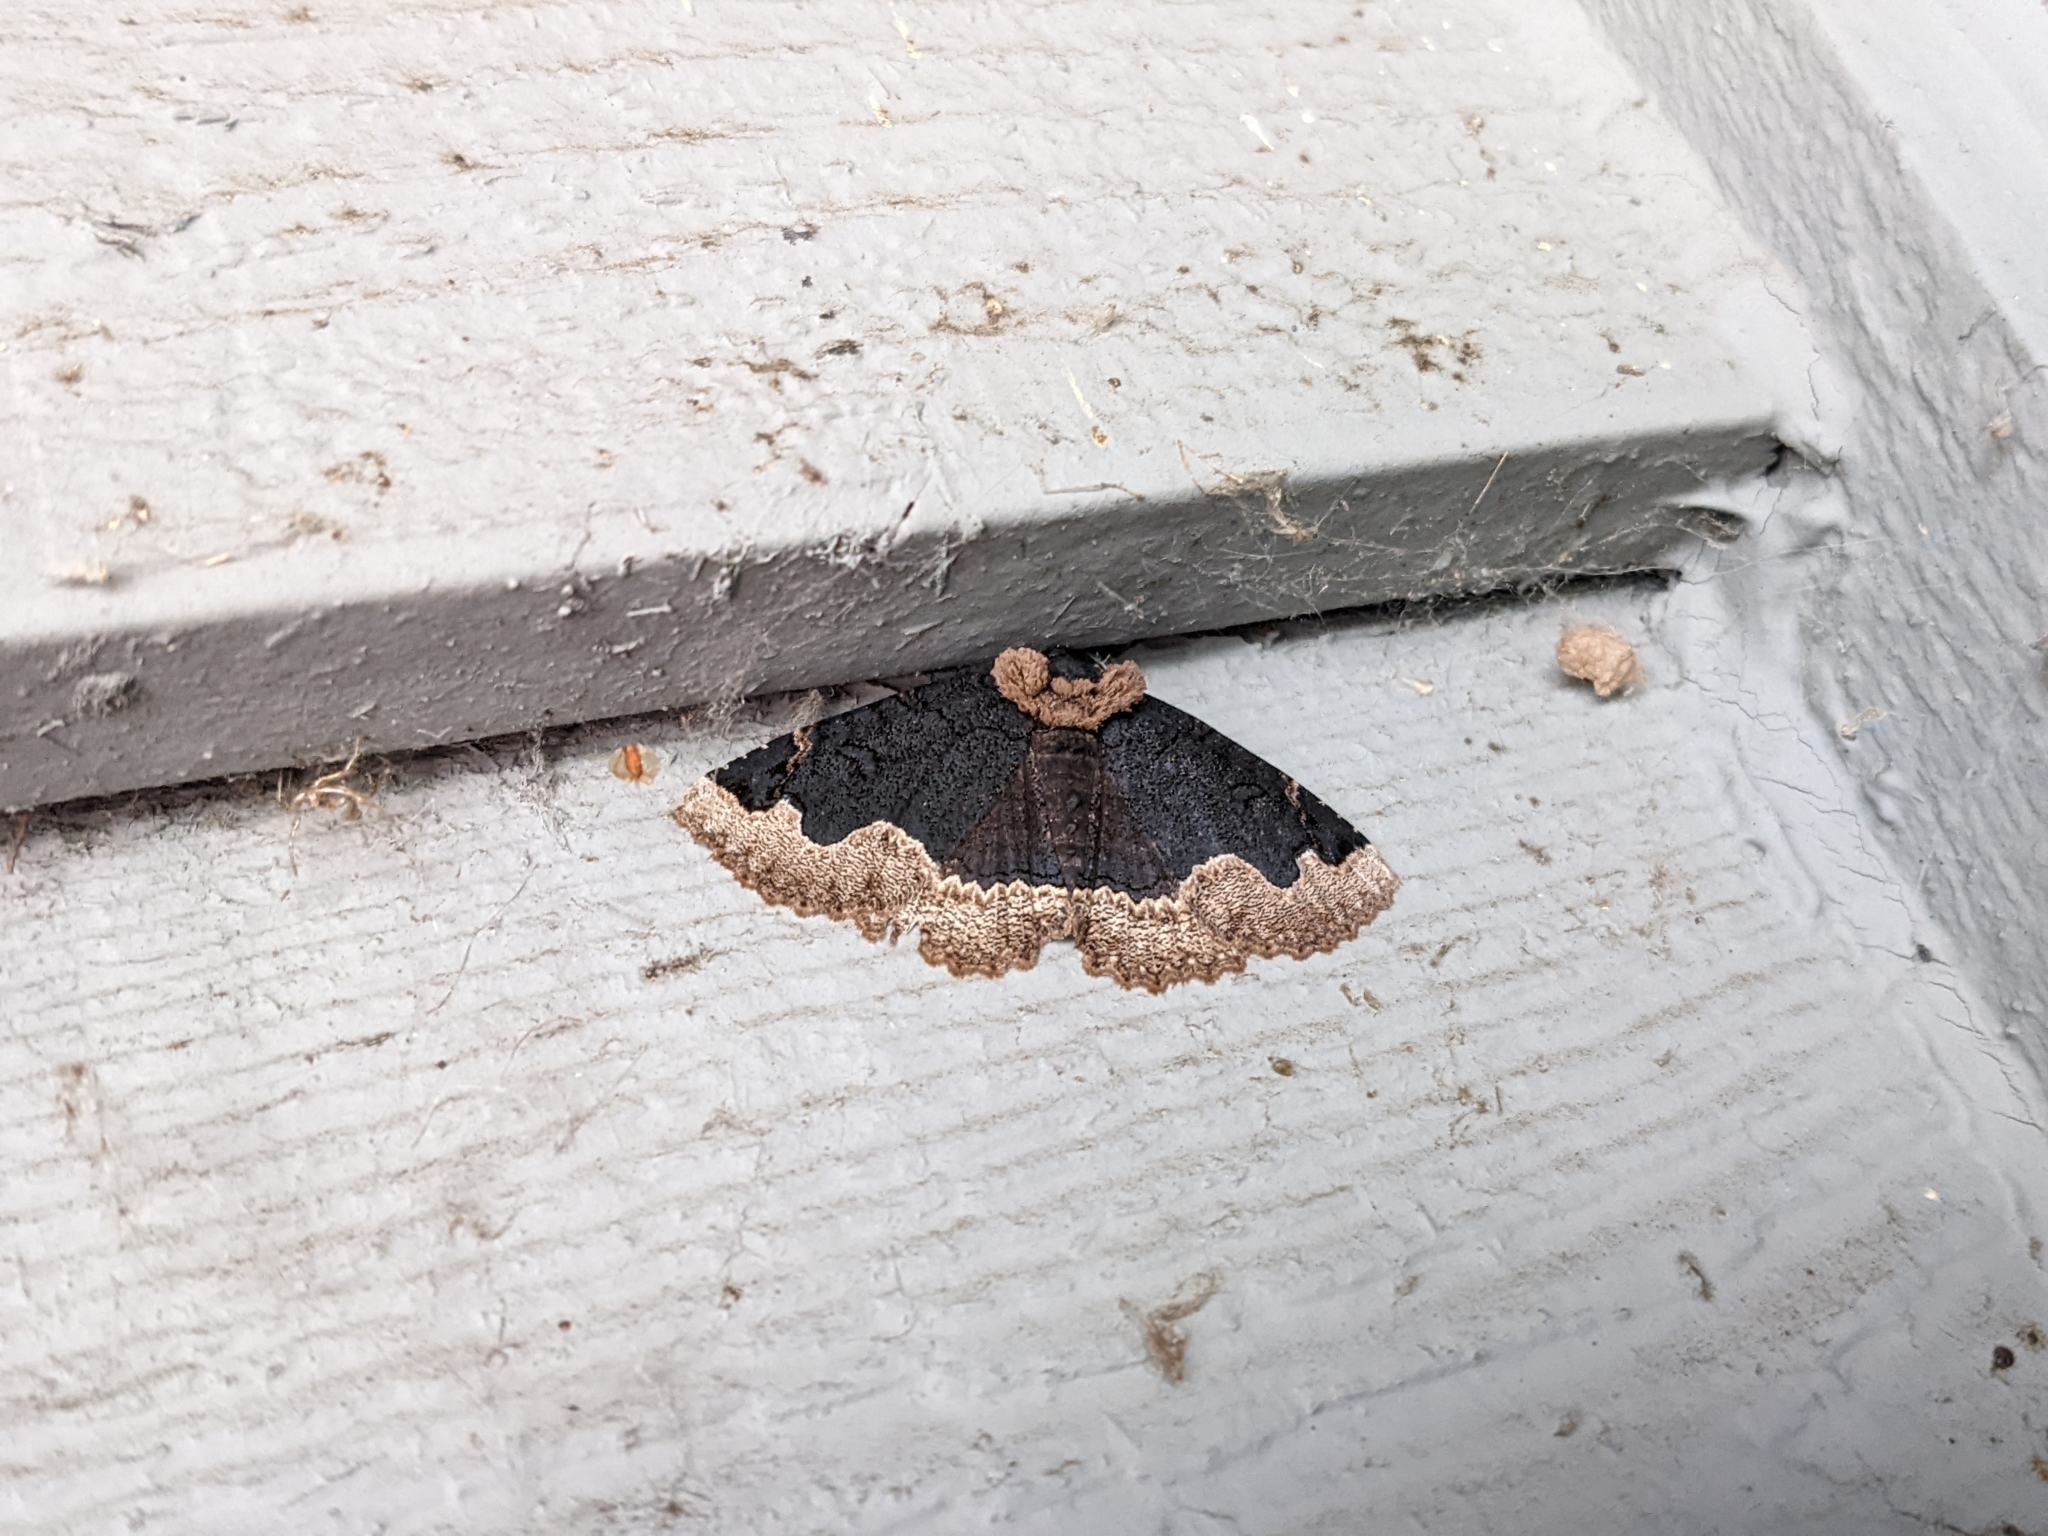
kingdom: Animalia
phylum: Arthropoda
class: Insecta
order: Lepidoptera
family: Erebidae
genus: Zale
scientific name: Zale horrida
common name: Horrid zale moth
